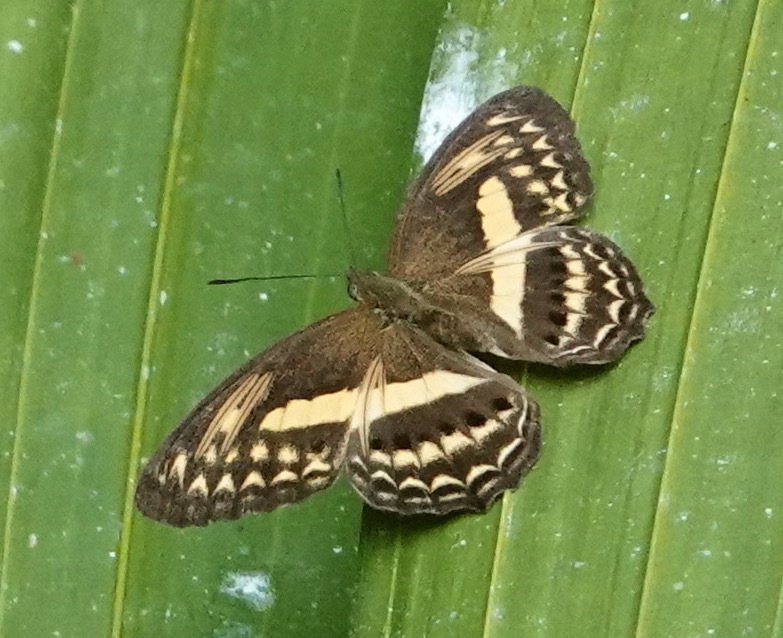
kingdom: Animalia
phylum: Arthropoda
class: Insecta
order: Lepidoptera
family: Nymphalidae
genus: Algia
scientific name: Algia fasciata
